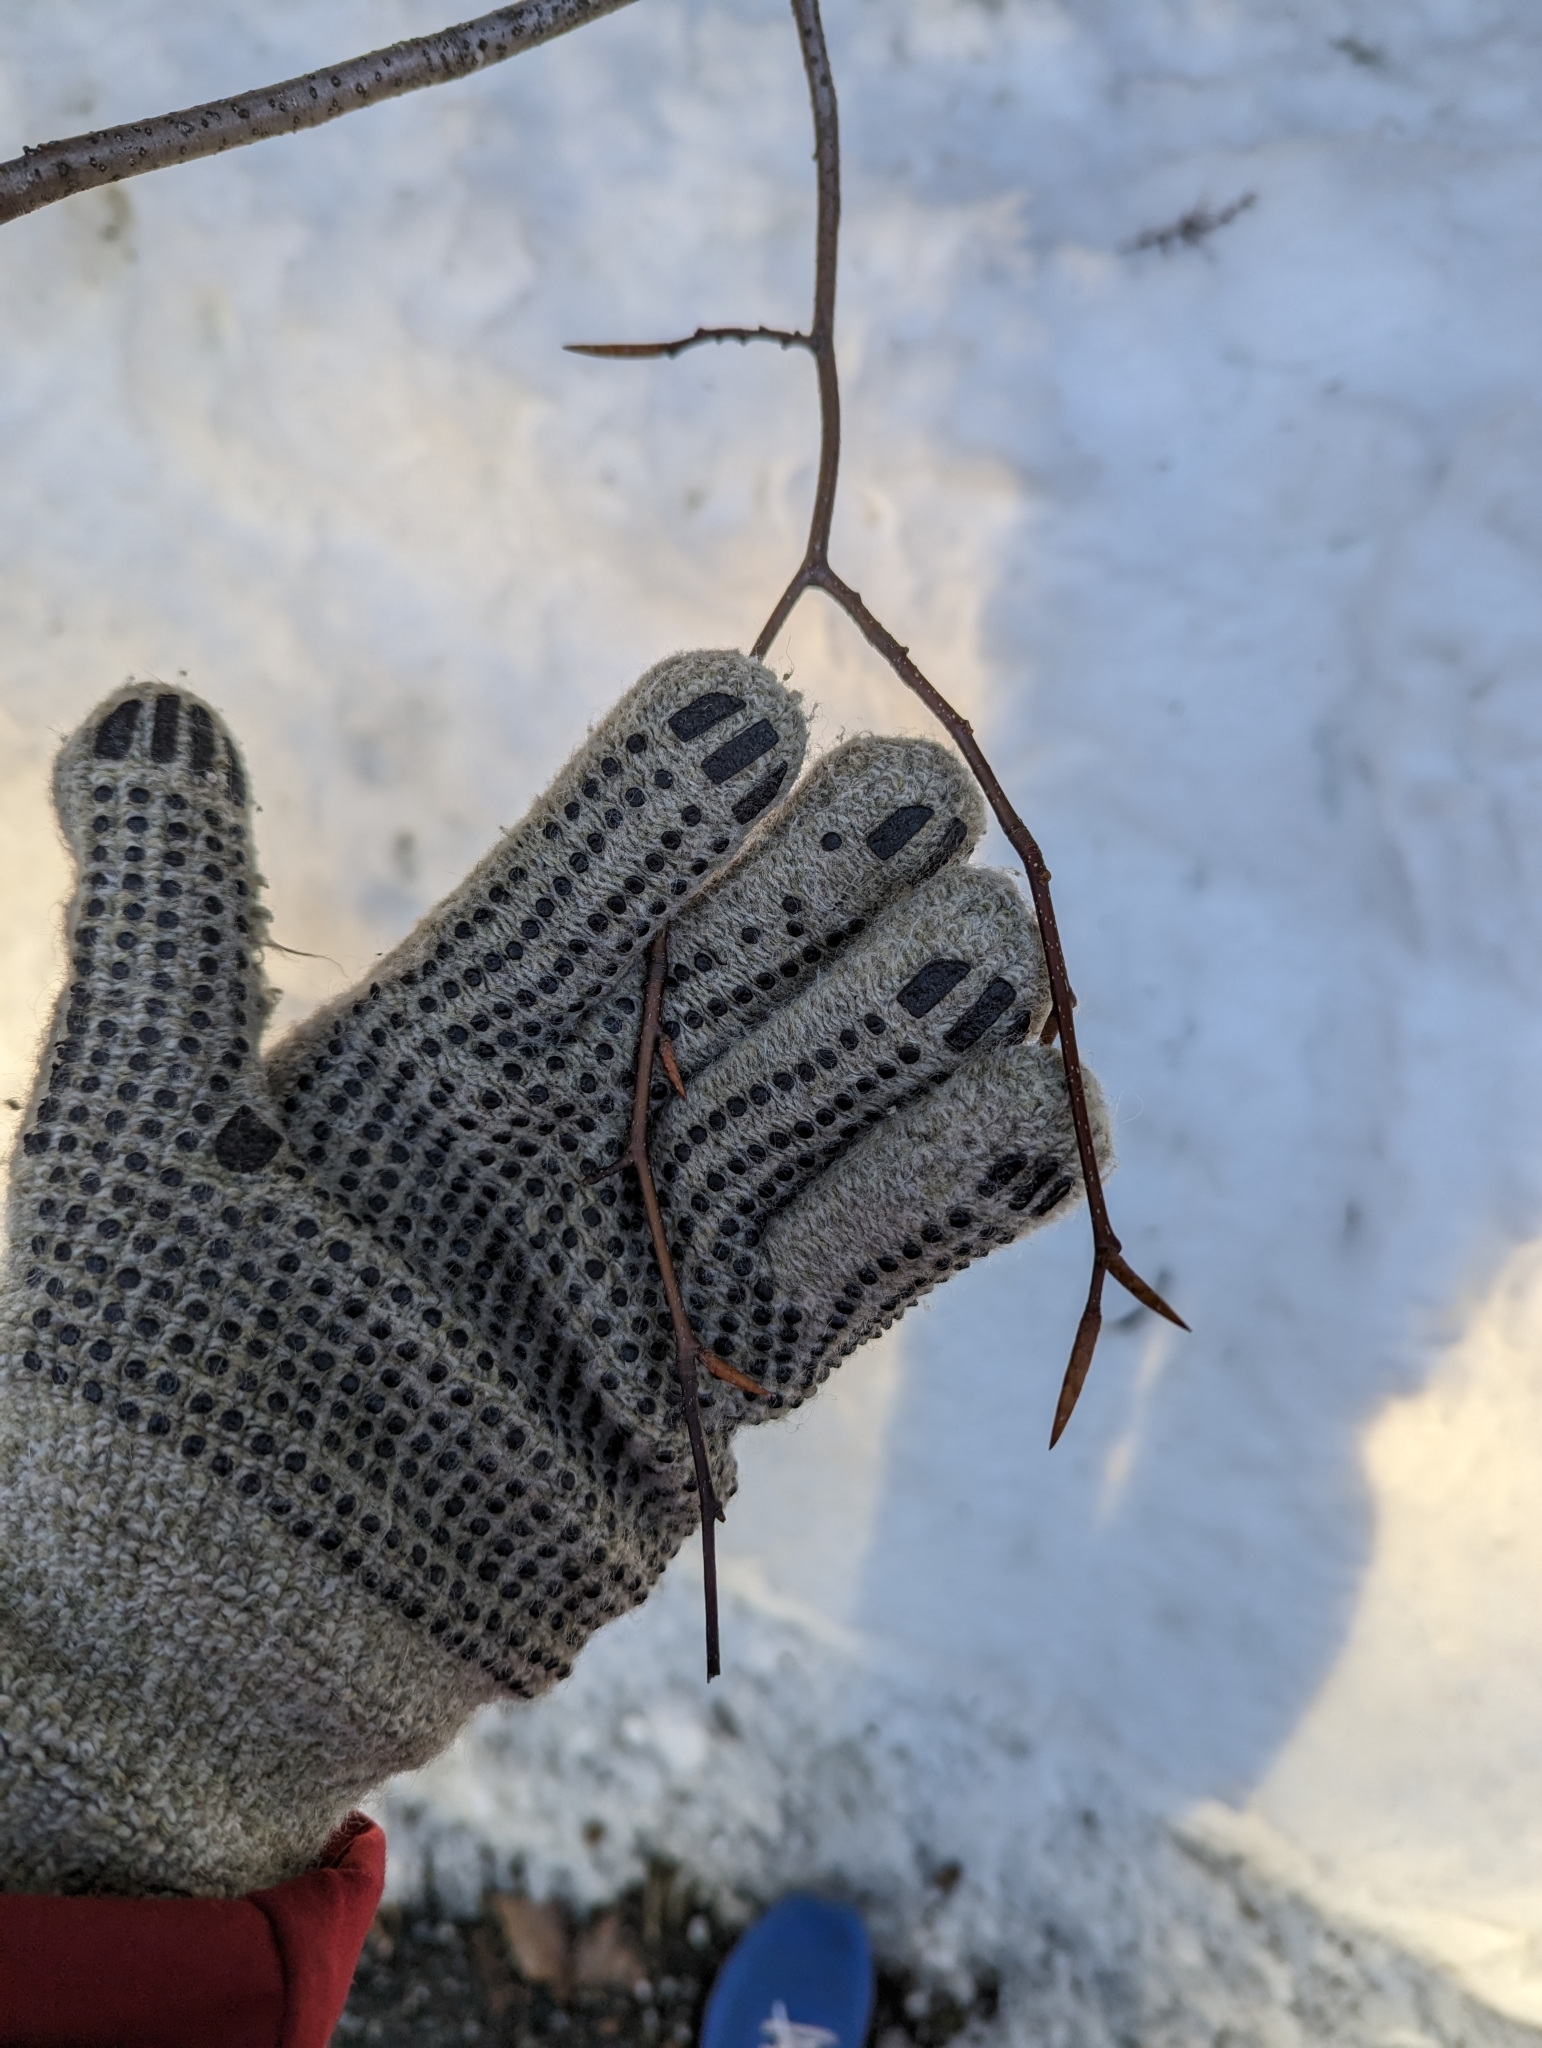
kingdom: Plantae
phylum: Tracheophyta
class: Magnoliopsida
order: Fagales
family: Fagaceae
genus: Fagus
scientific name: Fagus grandifolia
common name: American beech
